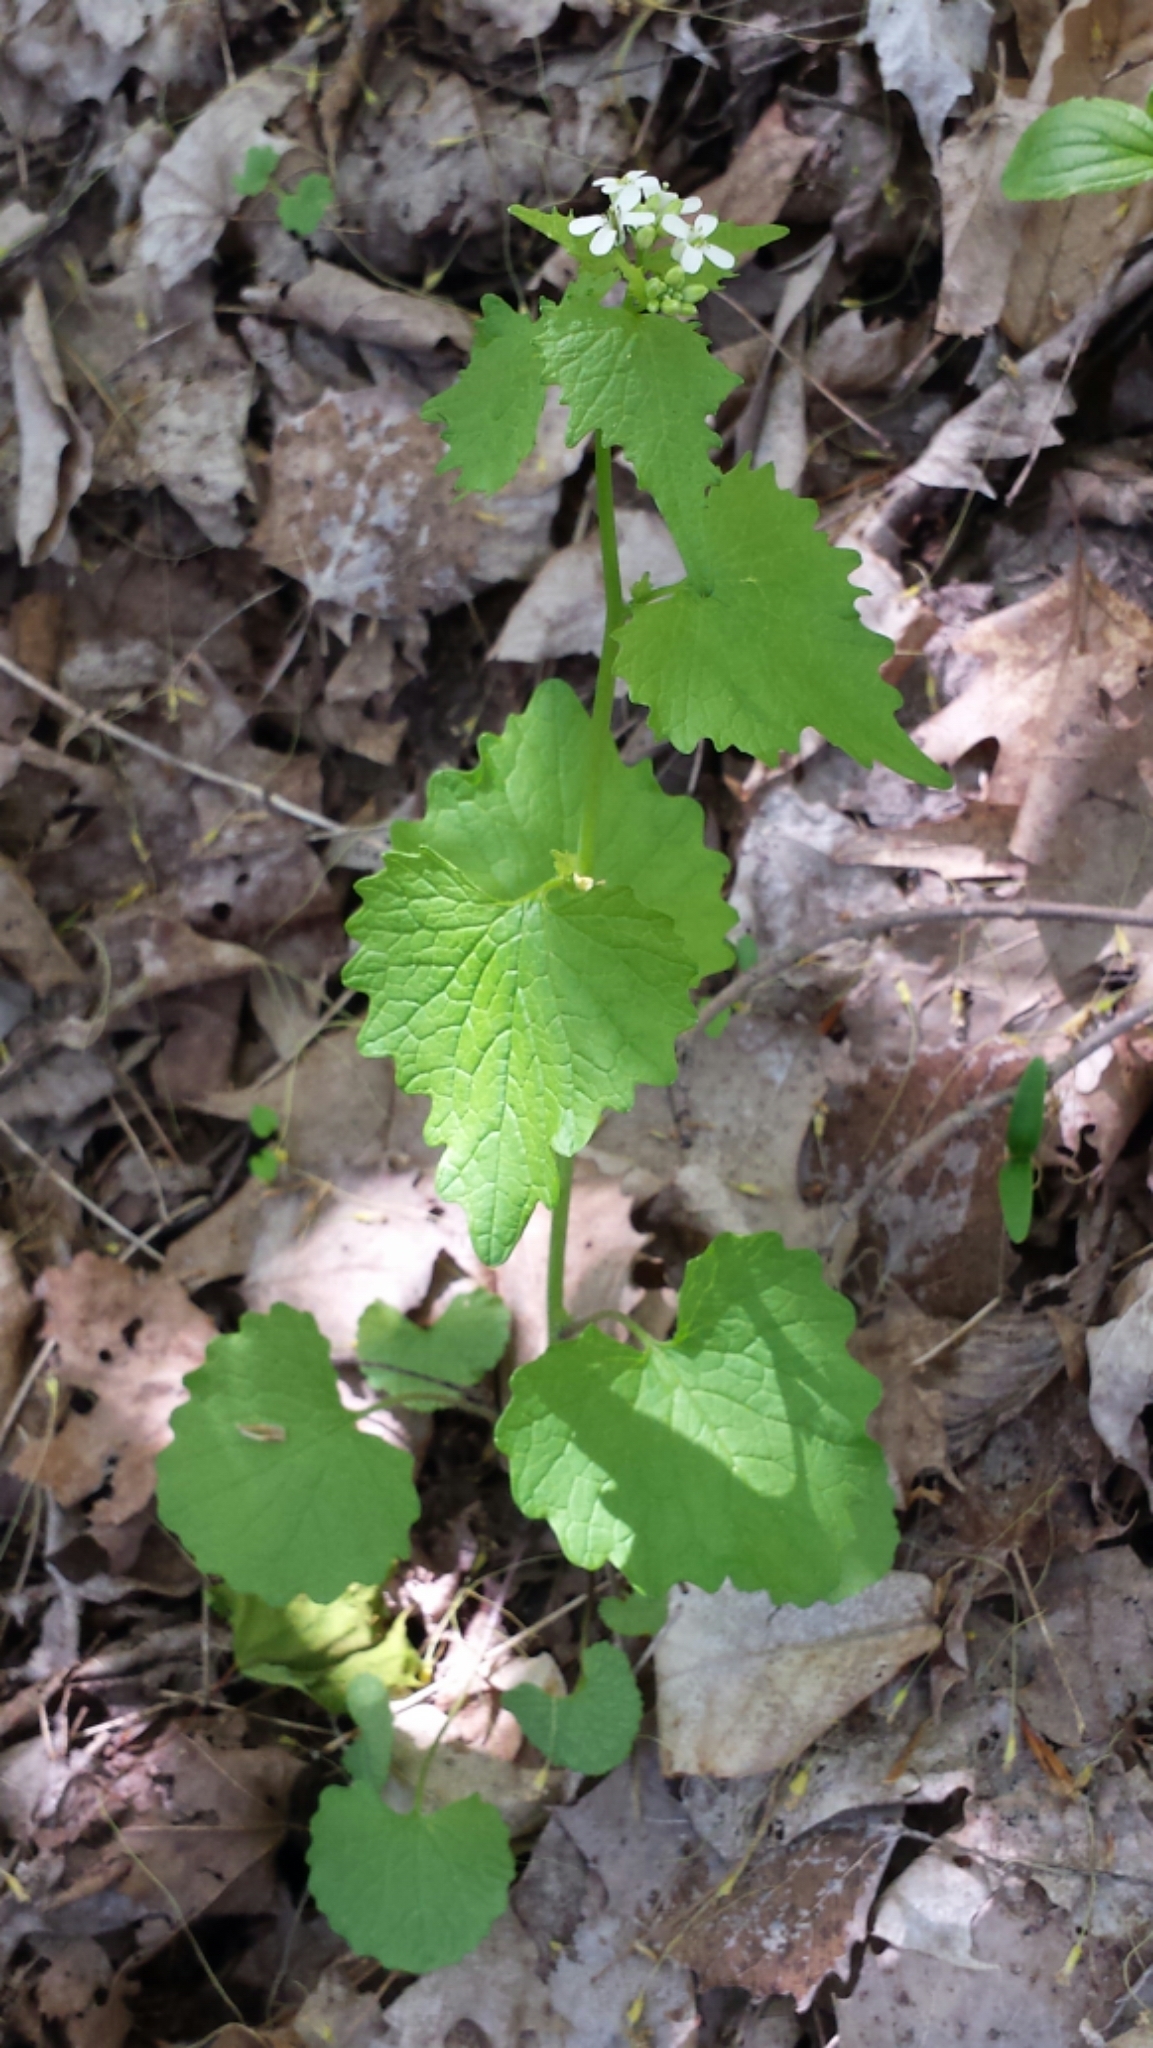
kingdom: Plantae
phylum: Tracheophyta
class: Magnoliopsida
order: Brassicales
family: Brassicaceae
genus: Alliaria
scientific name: Alliaria petiolata
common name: Garlic mustard
